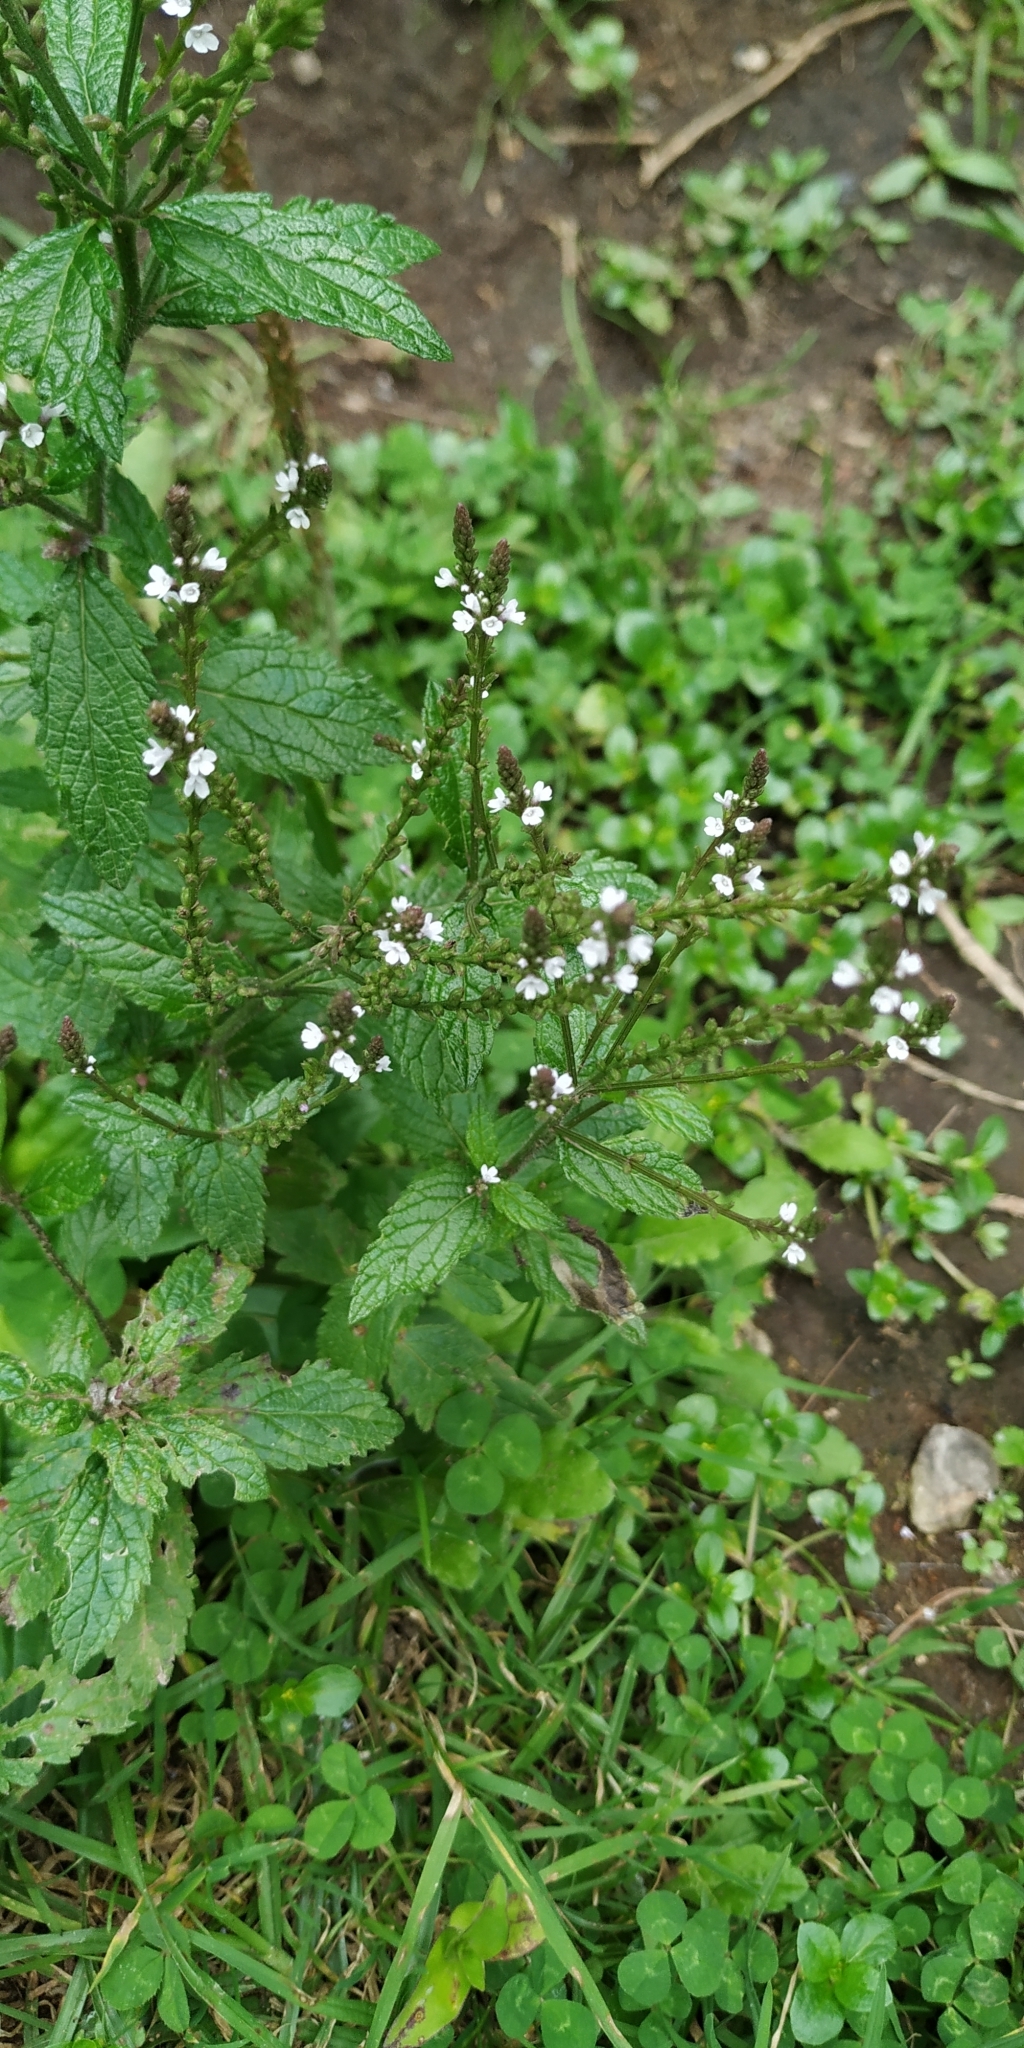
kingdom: Plantae
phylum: Tracheophyta
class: Magnoliopsida
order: Lamiales
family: Verbenaceae
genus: Verbena
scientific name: Verbena carolina
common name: Carolina vervain
